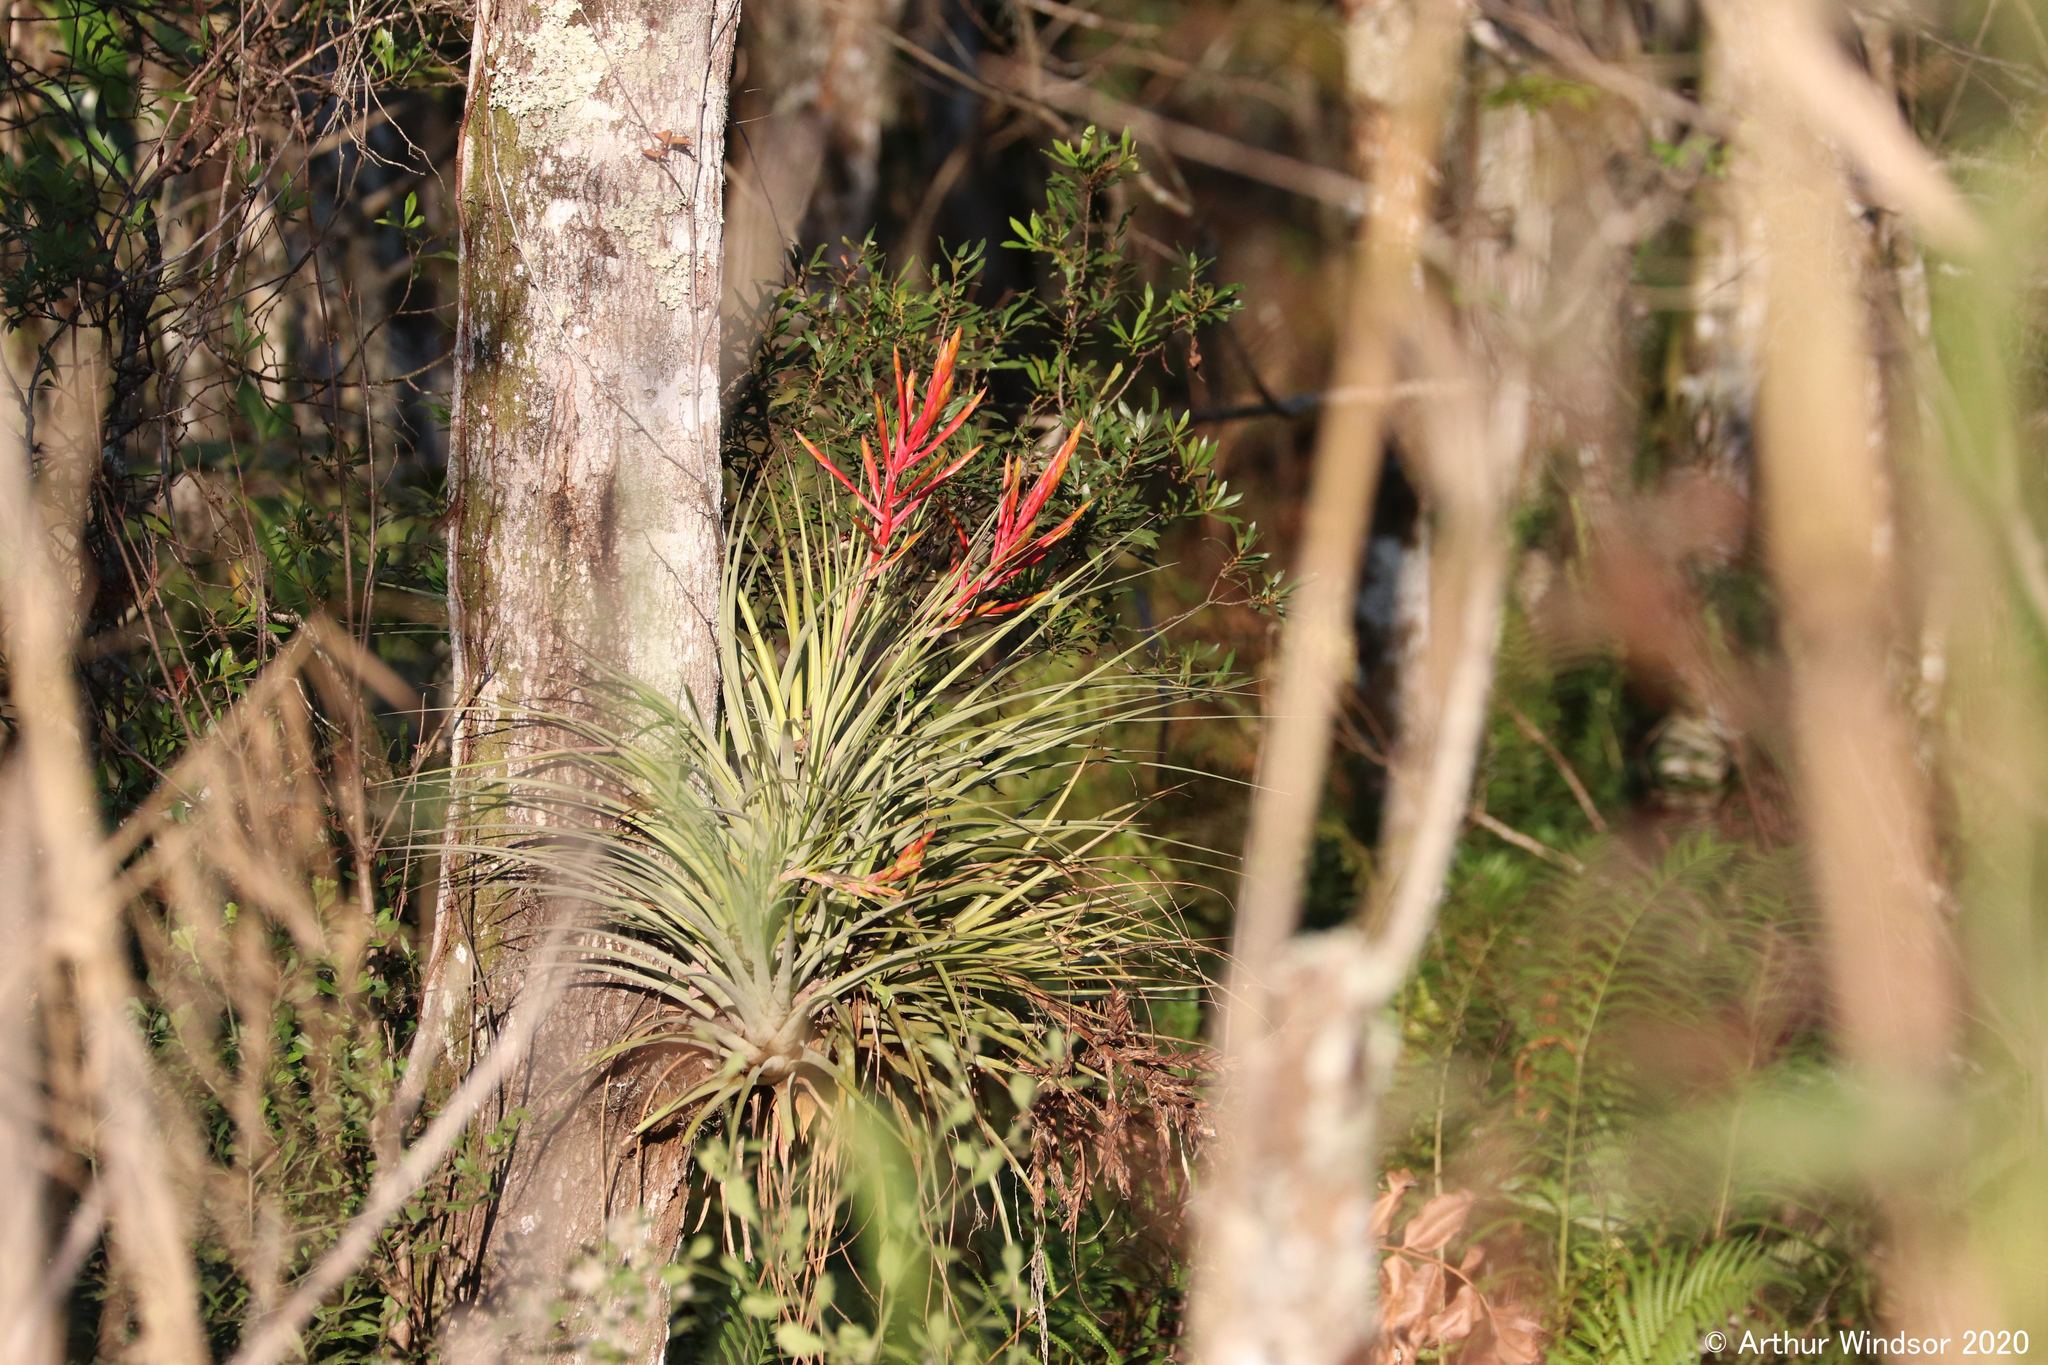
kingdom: Plantae
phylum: Tracheophyta
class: Liliopsida
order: Poales
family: Bromeliaceae
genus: Tillandsia
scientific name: Tillandsia fasciculata
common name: Giant airplant
